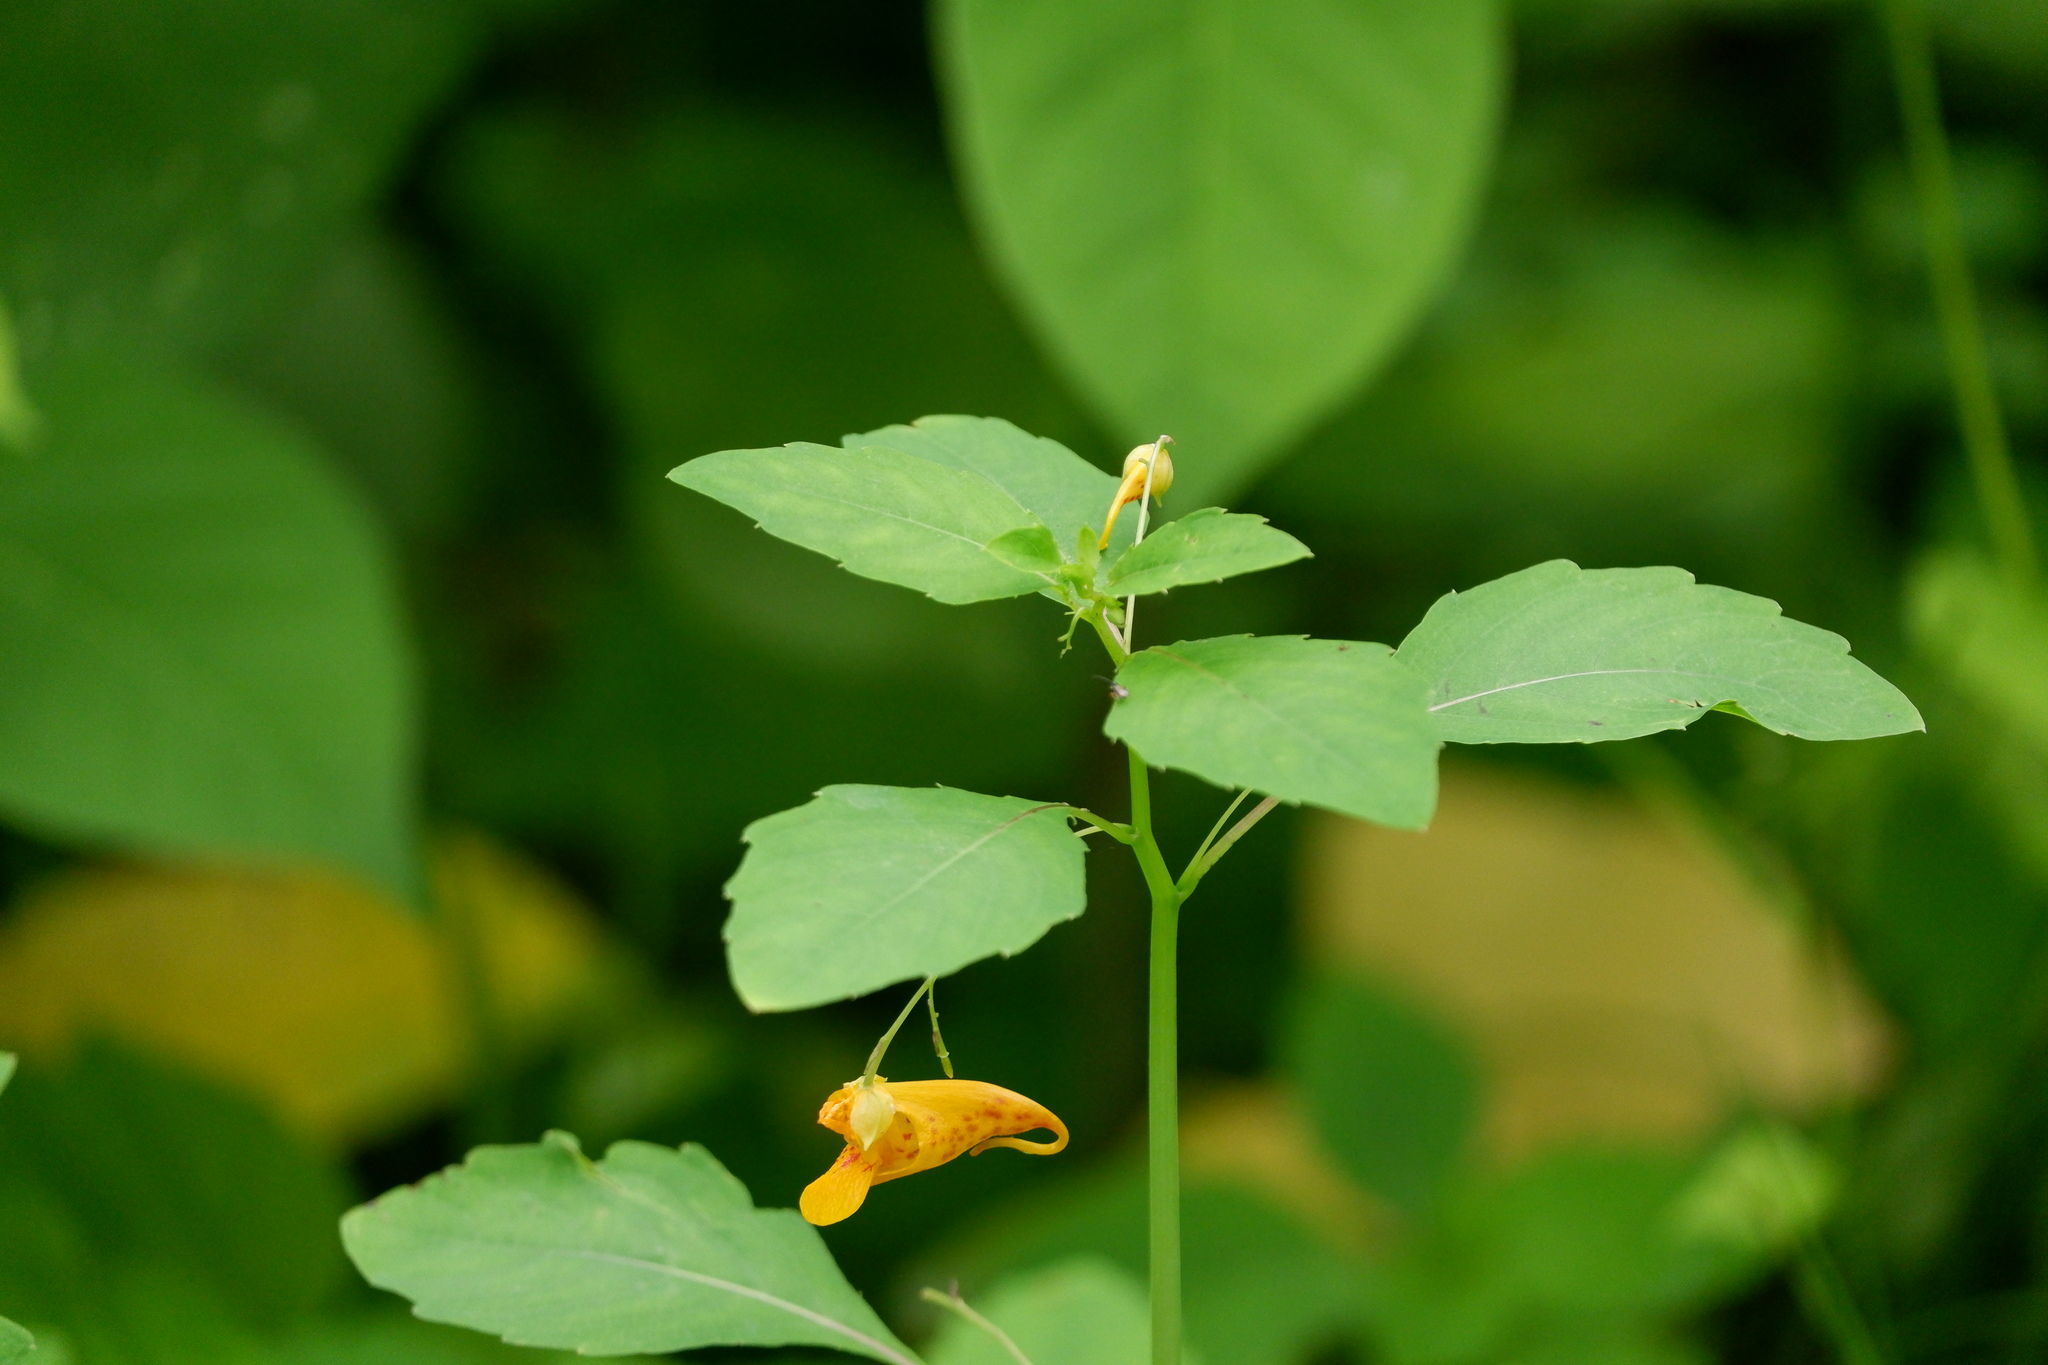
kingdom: Plantae
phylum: Tracheophyta
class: Magnoliopsida
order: Ericales
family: Balsaminaceae
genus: Impatiens
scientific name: Impatiens capensis
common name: Orange balsam
